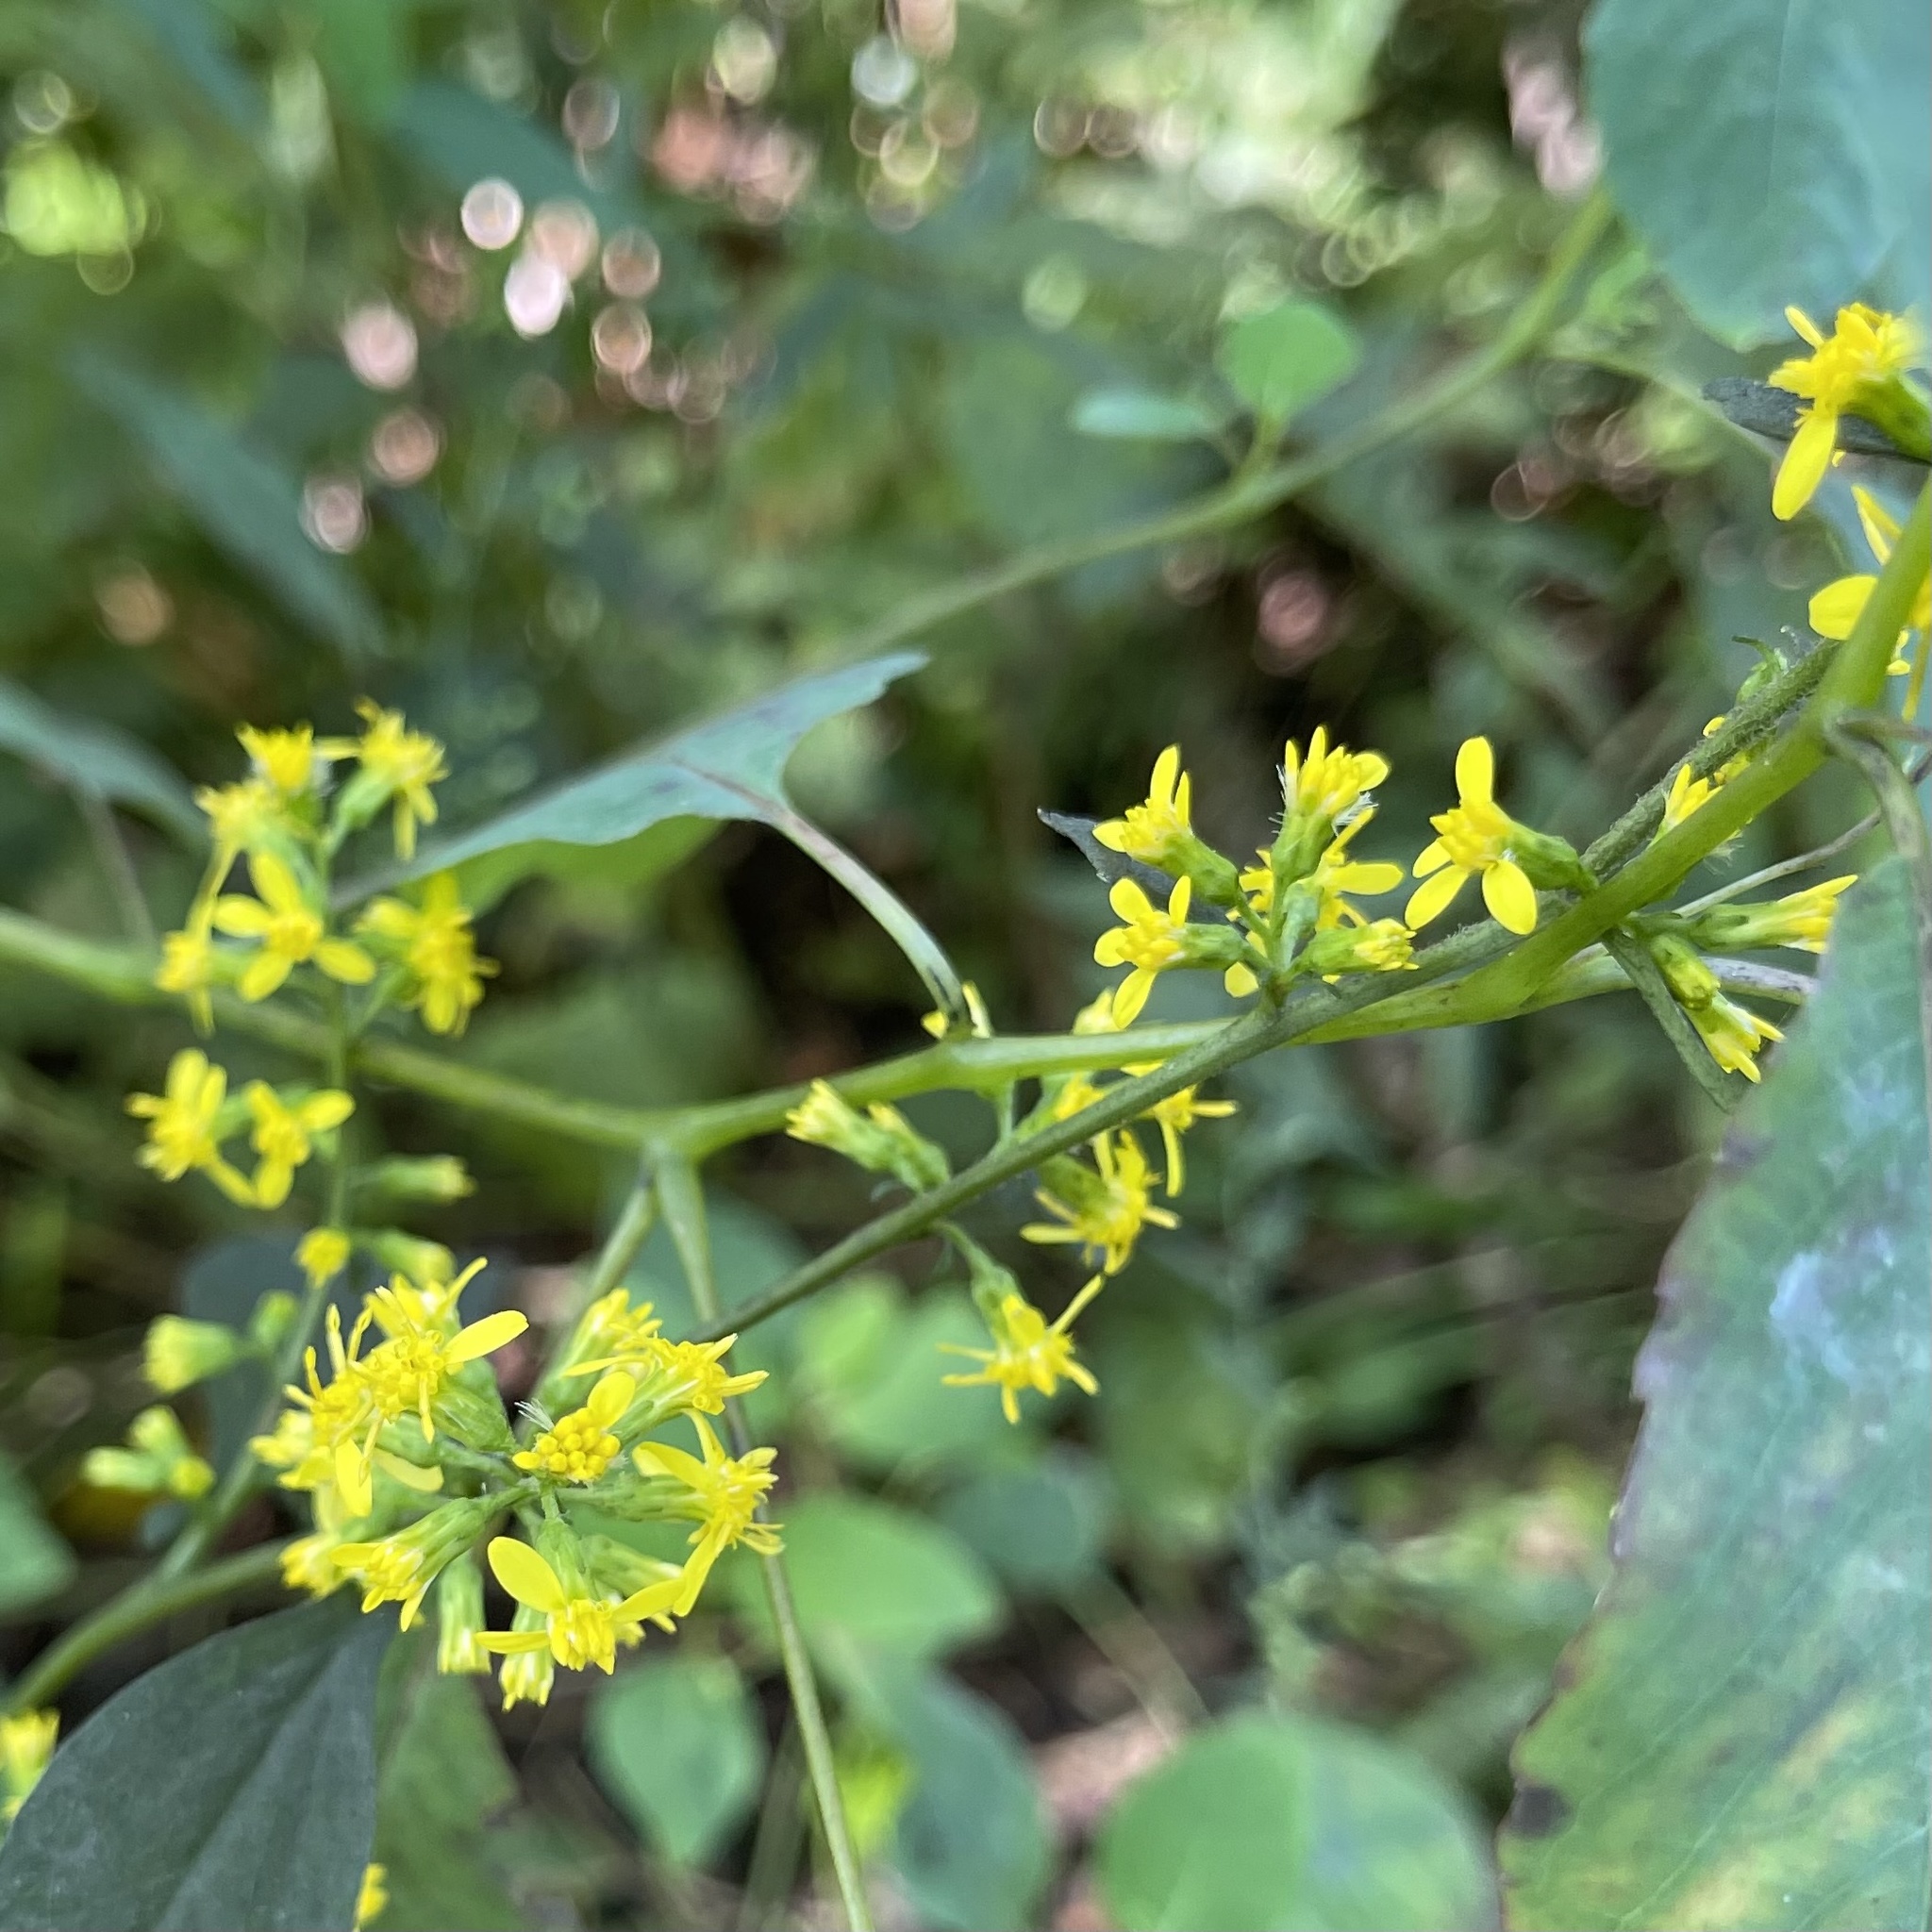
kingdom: Plantae
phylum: Tracheophyta
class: Magnoliopsida
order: Asterales
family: Asteraceae
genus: Solidago
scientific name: Solidago flexicaulis
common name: Zig-zag goldenrod
